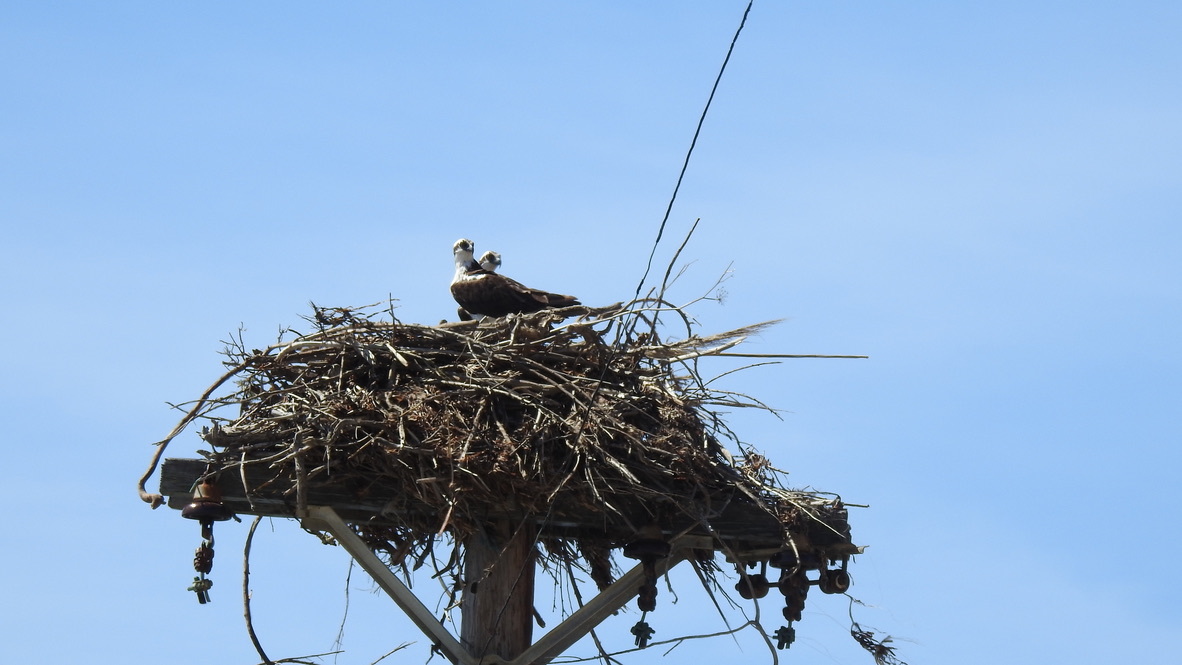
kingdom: Animalia
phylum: Chordata
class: Aves
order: Accipitriformes
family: Pandionidae
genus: Pandion
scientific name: Pandion haliaetus
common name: Osprey
